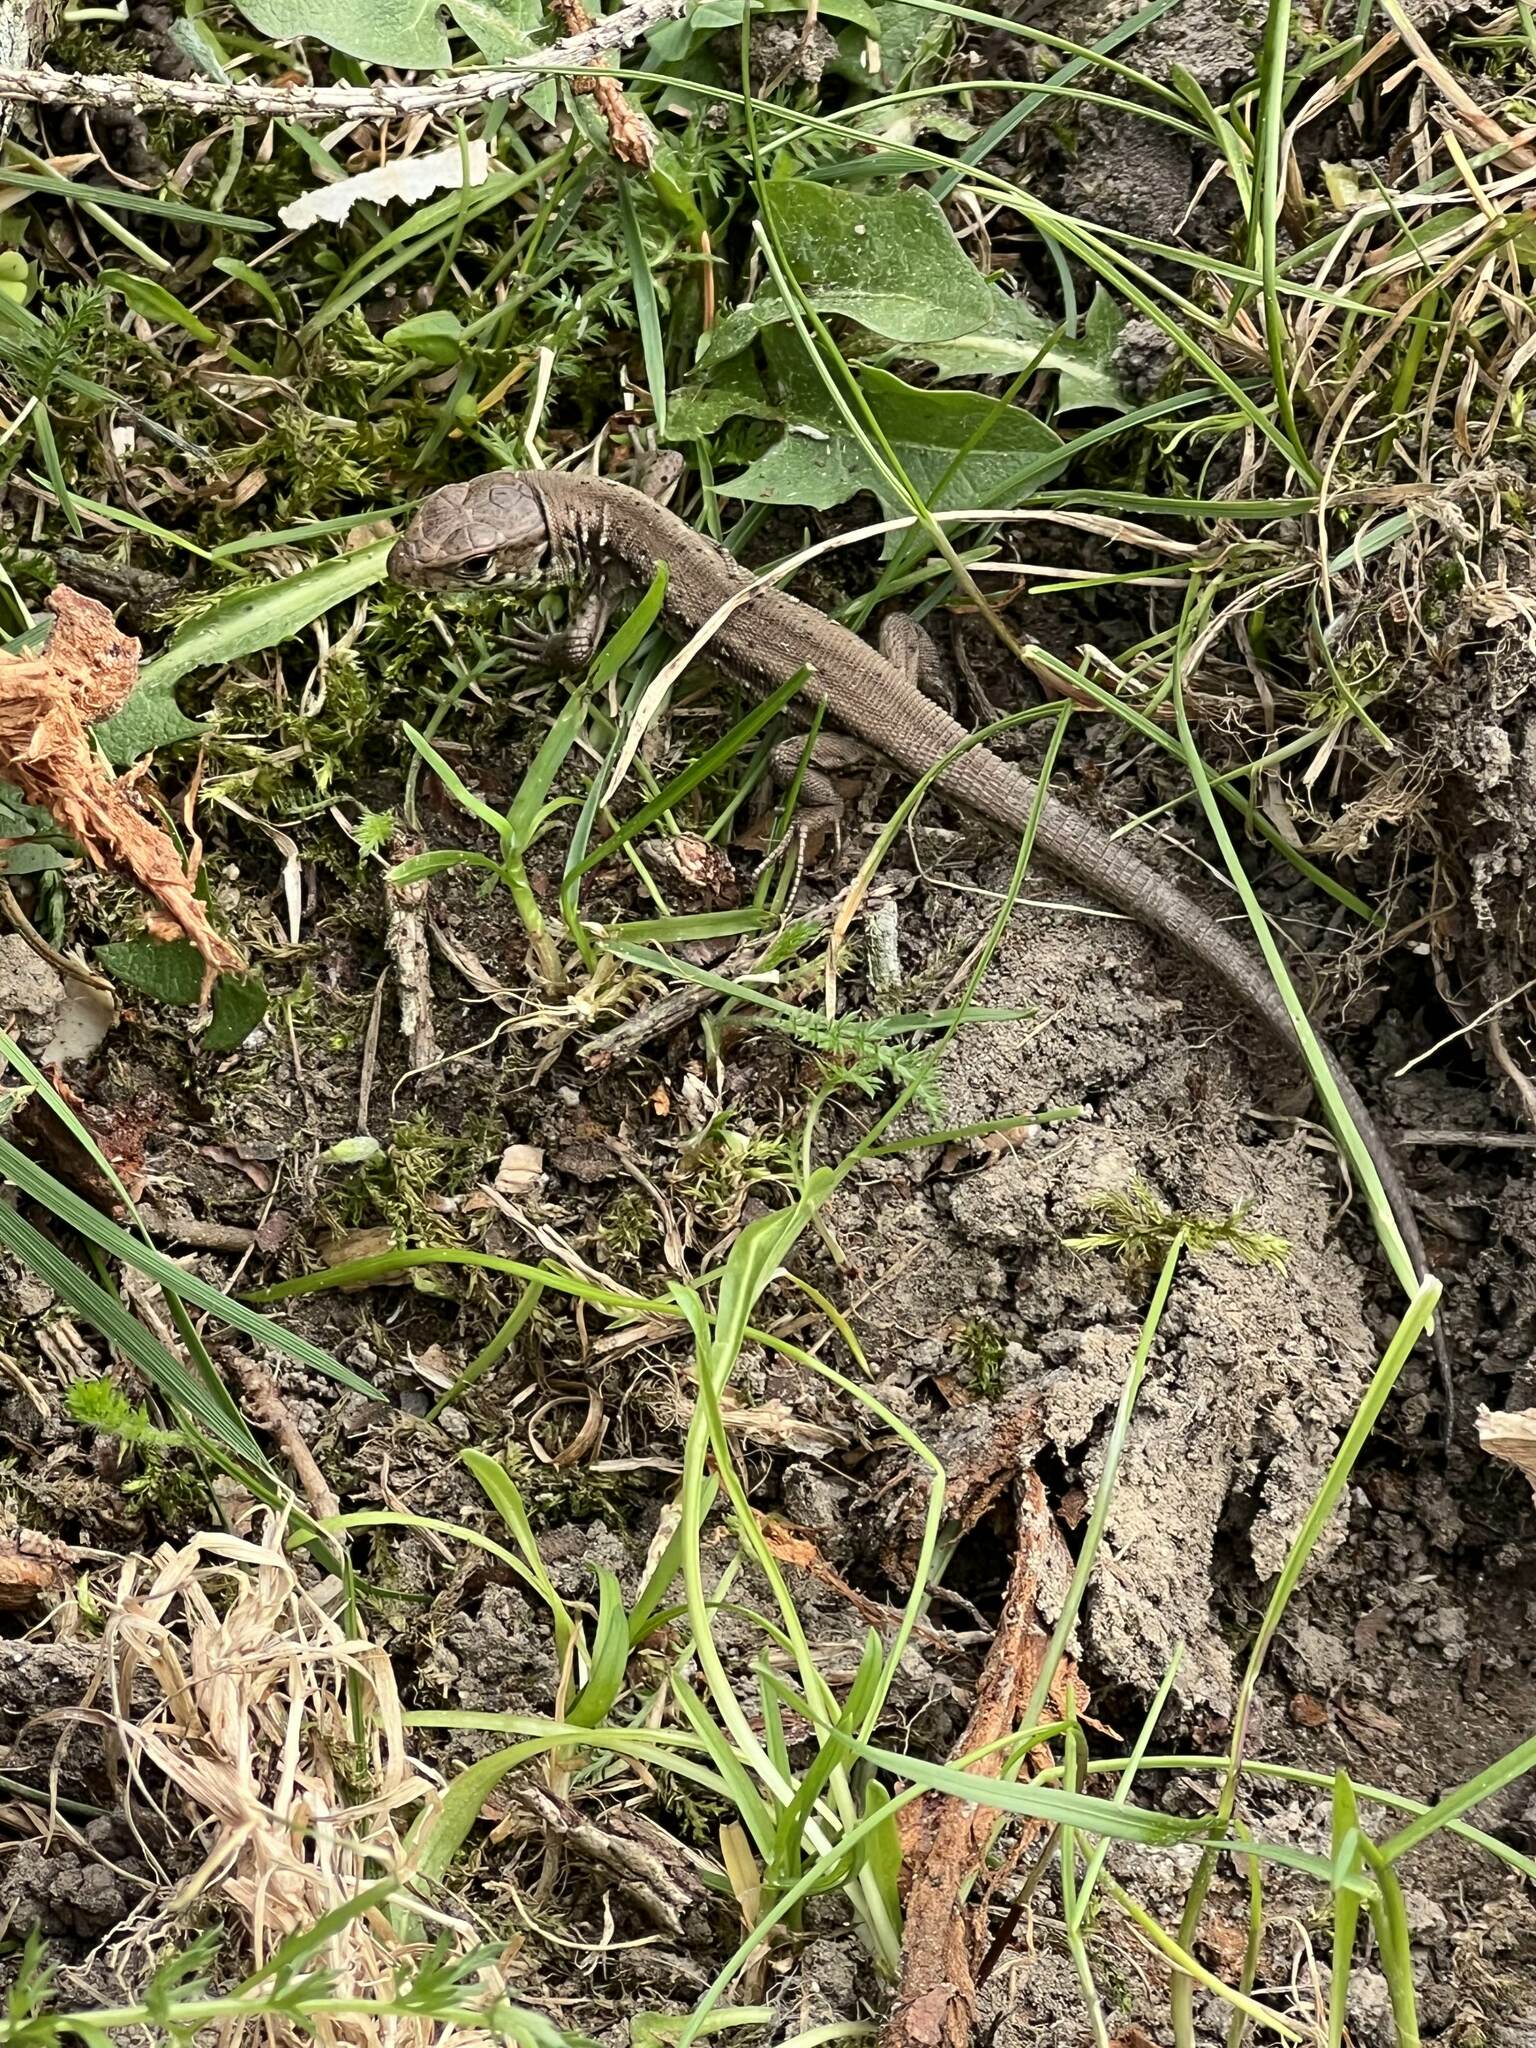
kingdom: Animalia
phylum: Chordata
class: Squamata
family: Lacertidae
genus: Lacerta
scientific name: Lacerta agilis
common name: Sand lizard
